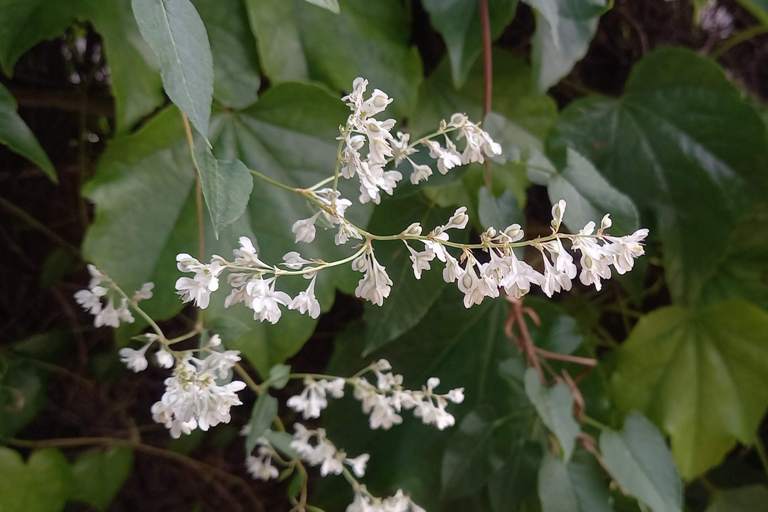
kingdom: Plantae
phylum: Tracheophyta
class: Magnoliopsida
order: Caryophyllales
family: Polygonaceae
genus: Fallopia
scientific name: Fallopia baldschuanica
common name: Russian-vine
